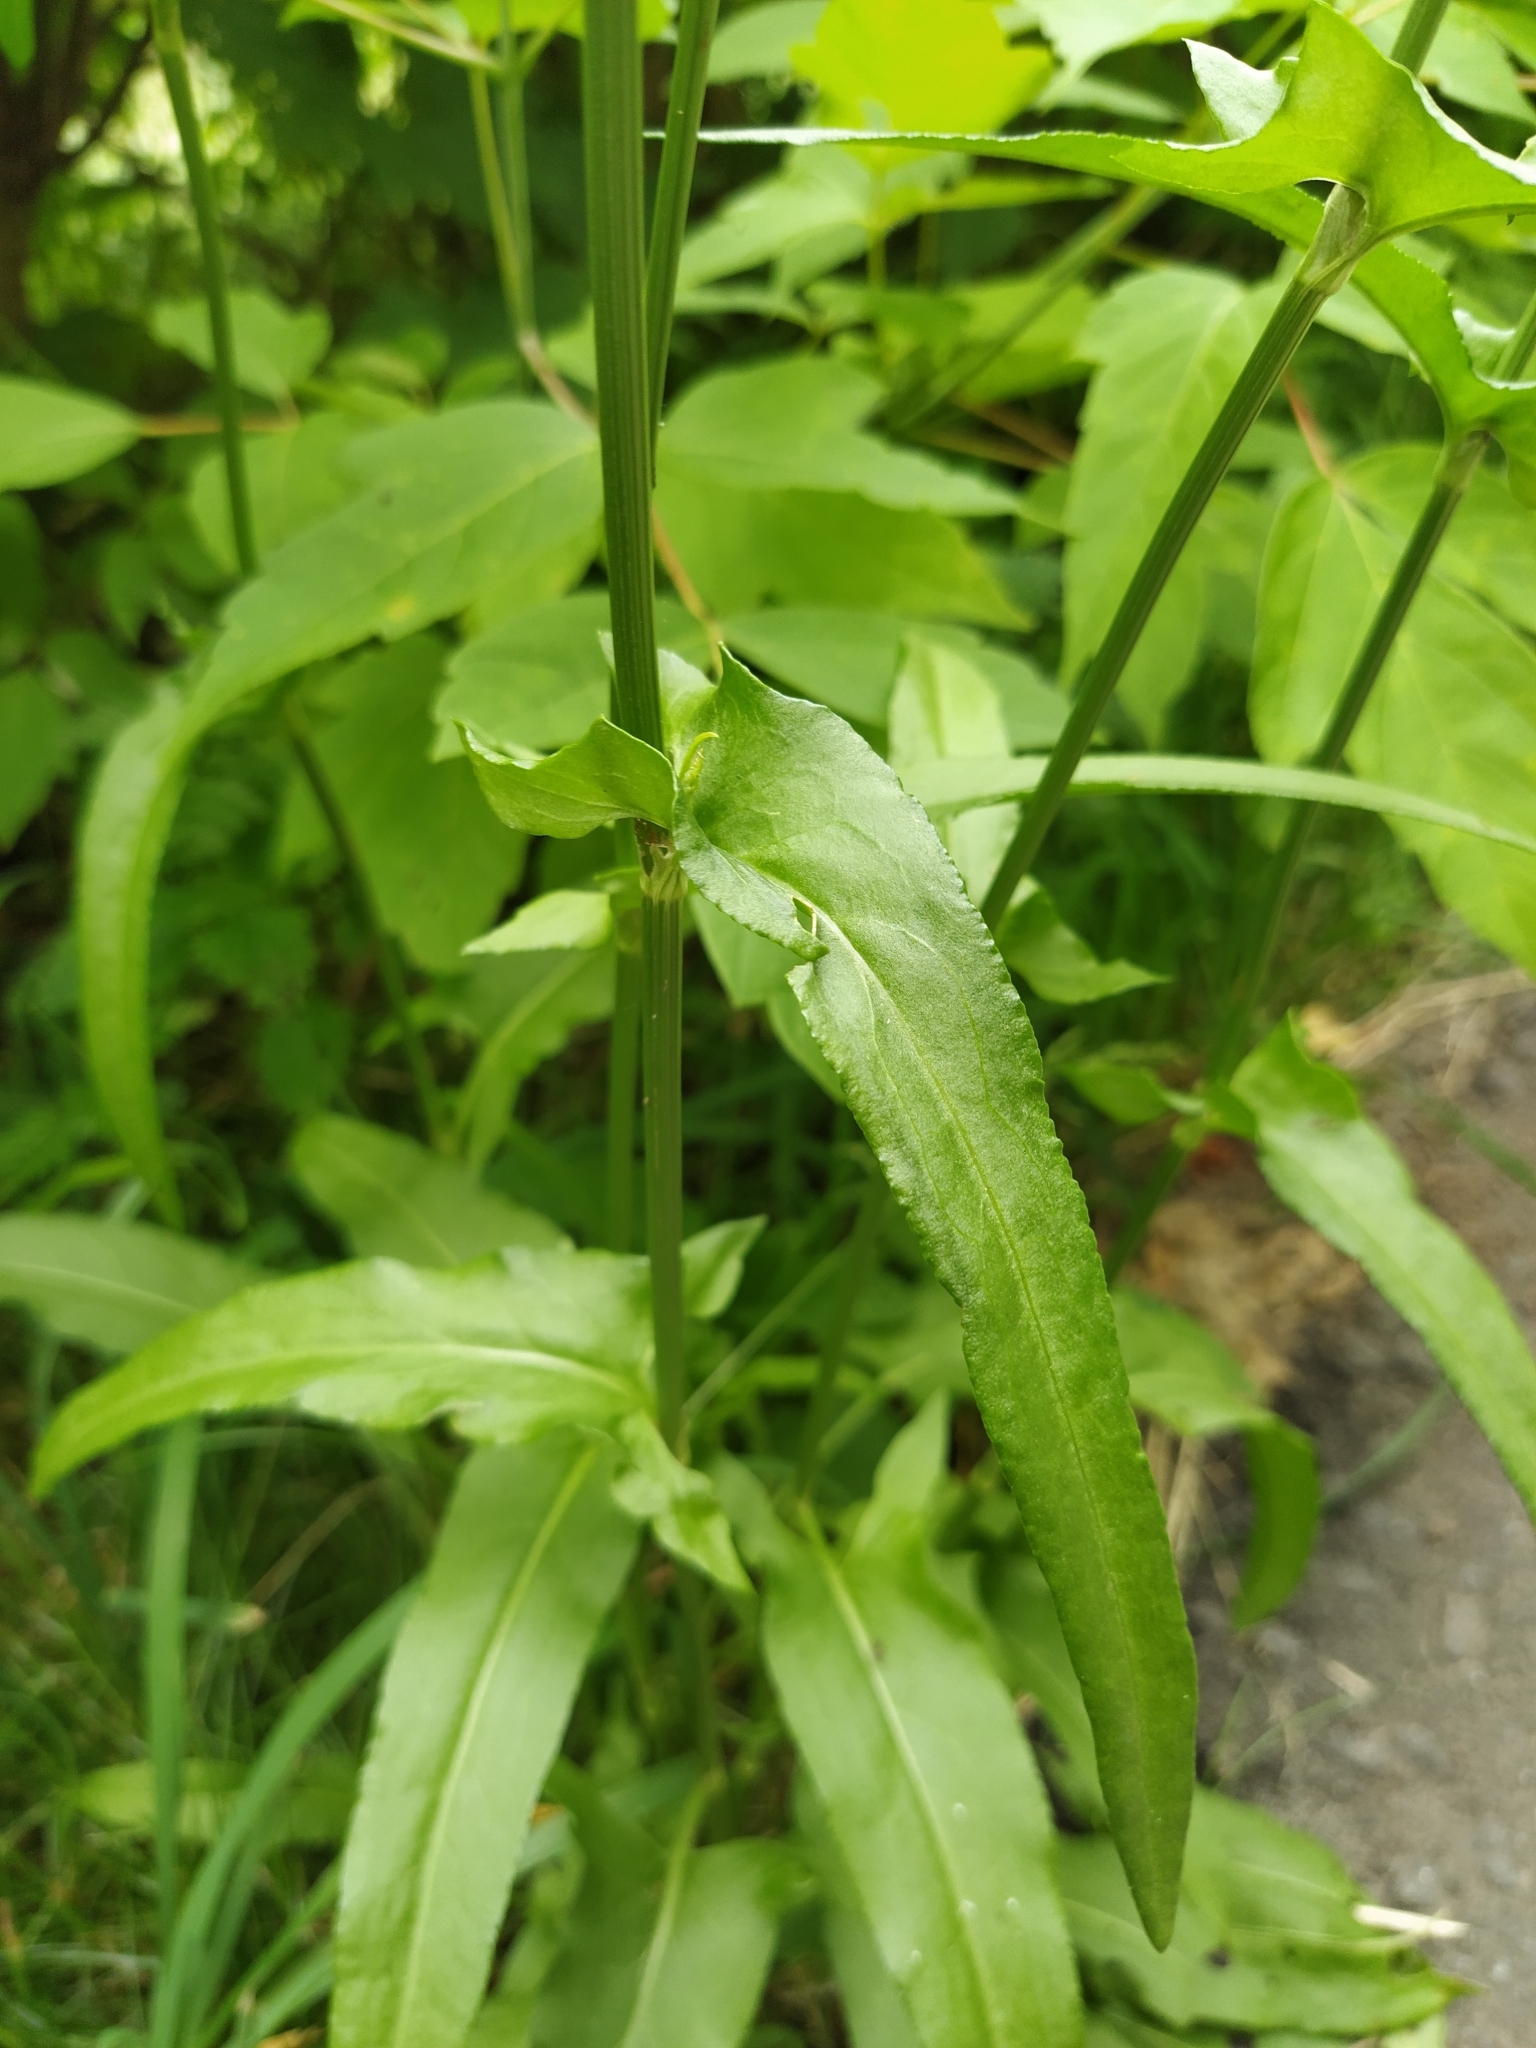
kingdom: Plantae
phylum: Tracheophyta
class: Magnoliopsida
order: Caryophyllales
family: Polygonaceae
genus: Rumex
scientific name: Rumex thyrsiflorus
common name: Garden sorrel
